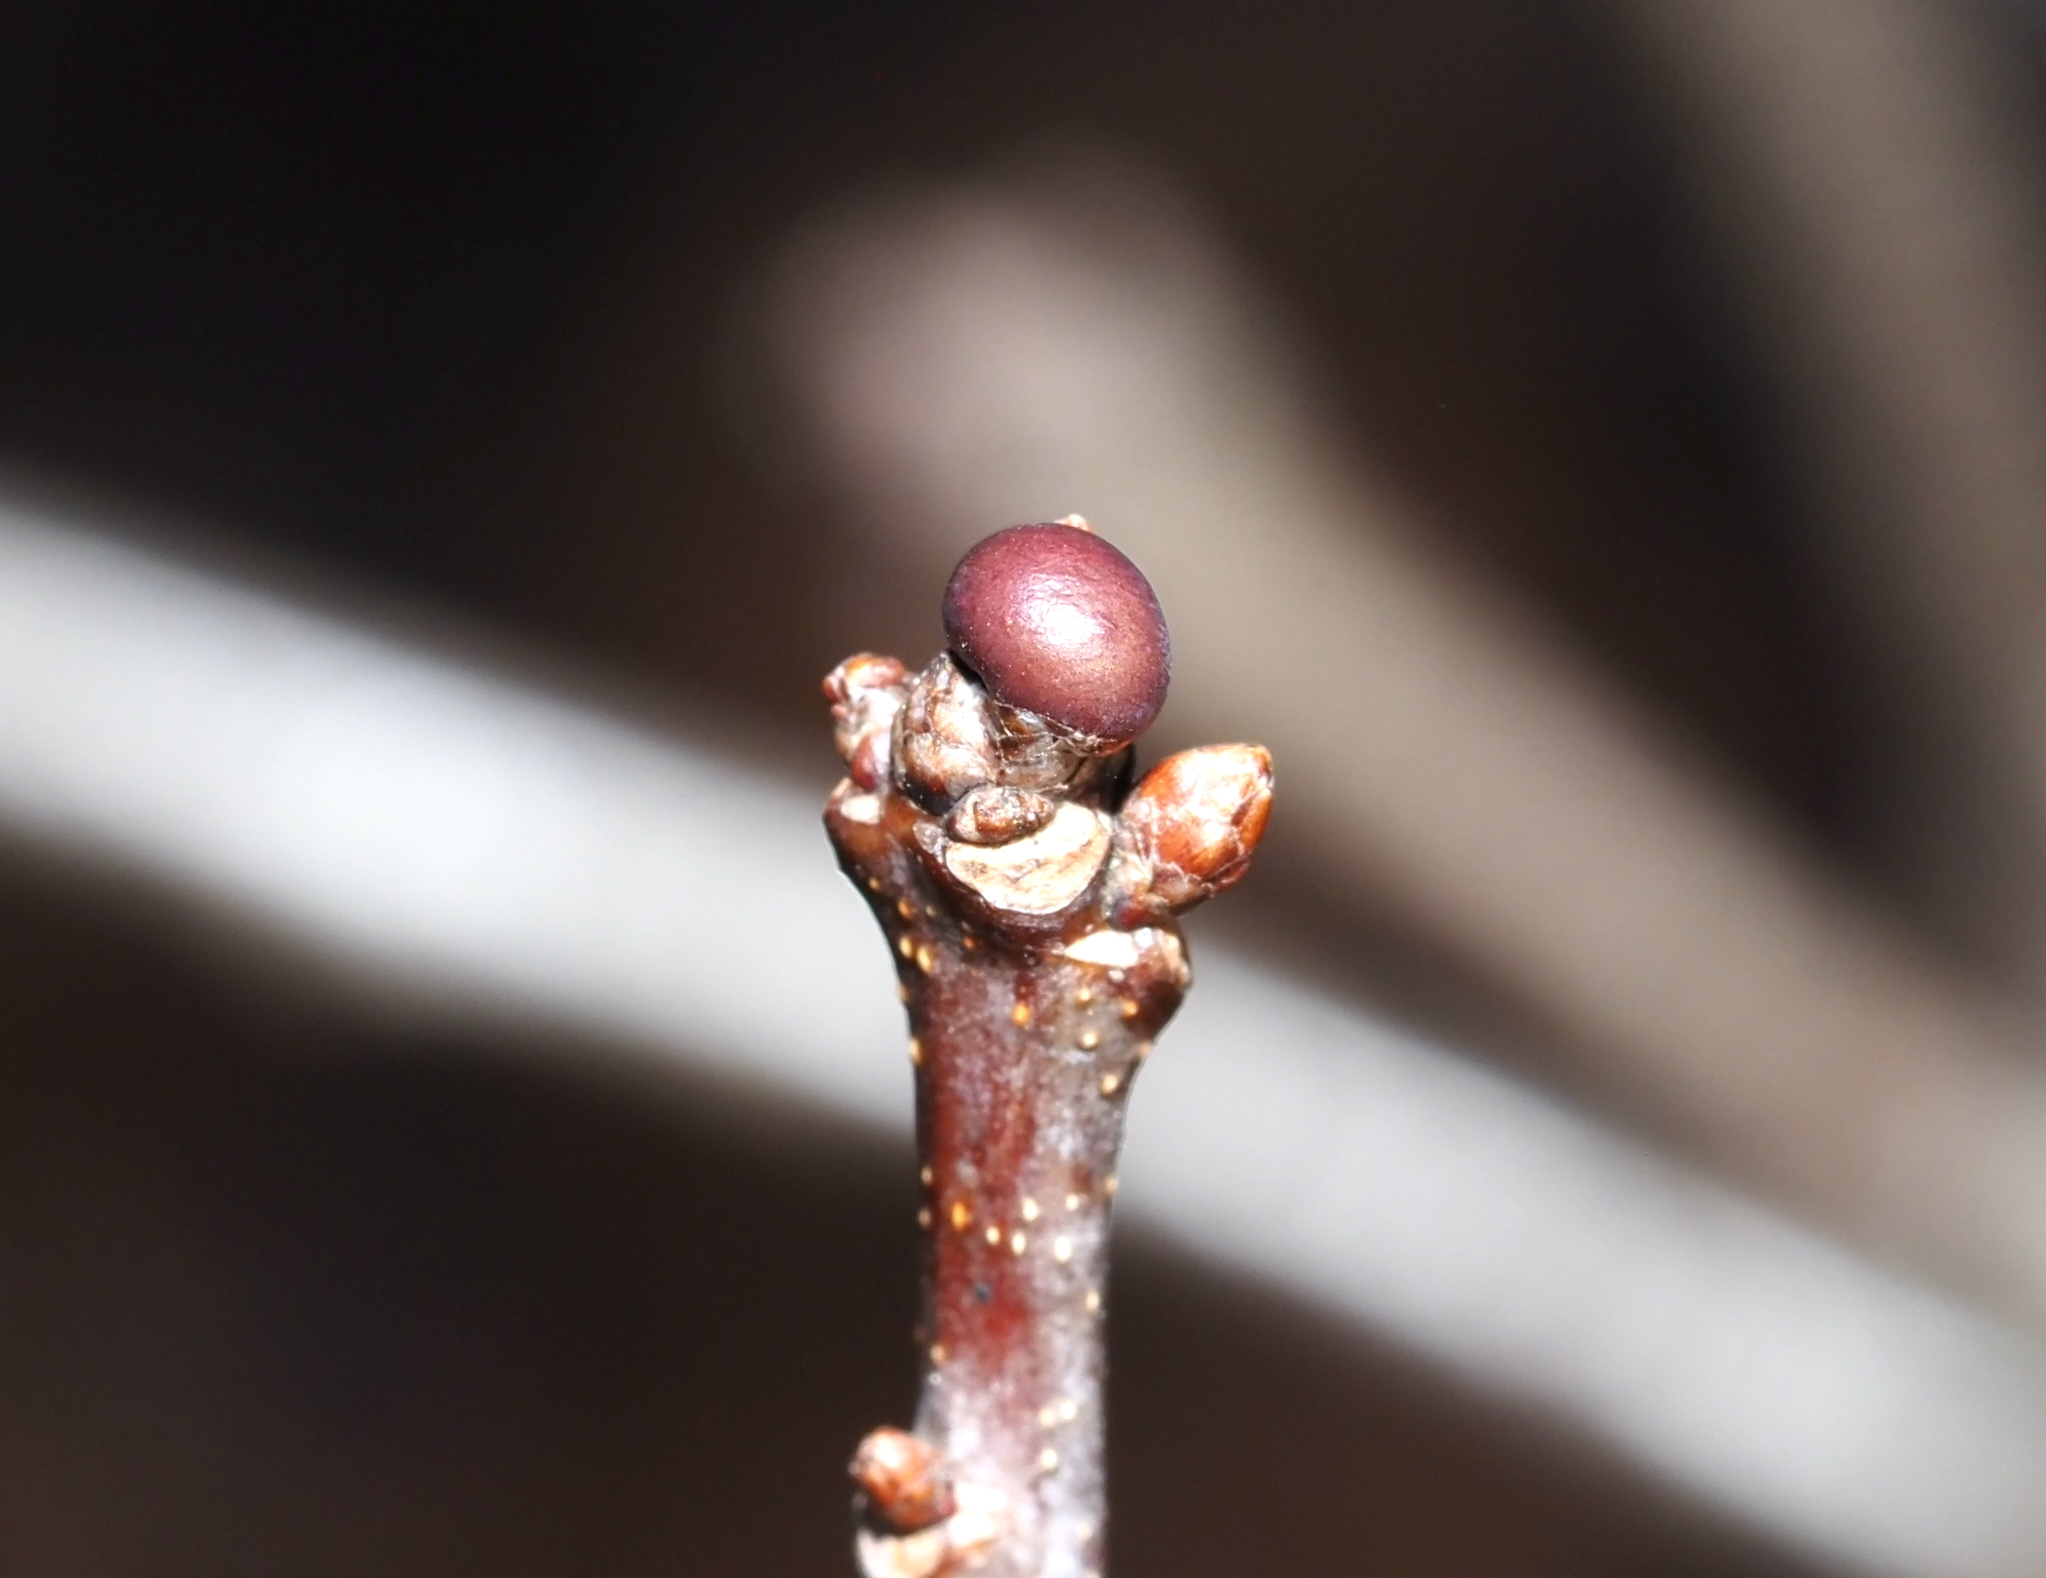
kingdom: Animalia
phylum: Arthropoda
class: Insecta
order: Hymenoptera
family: Cynipidae
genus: Neuroterus
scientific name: Neuroterus
